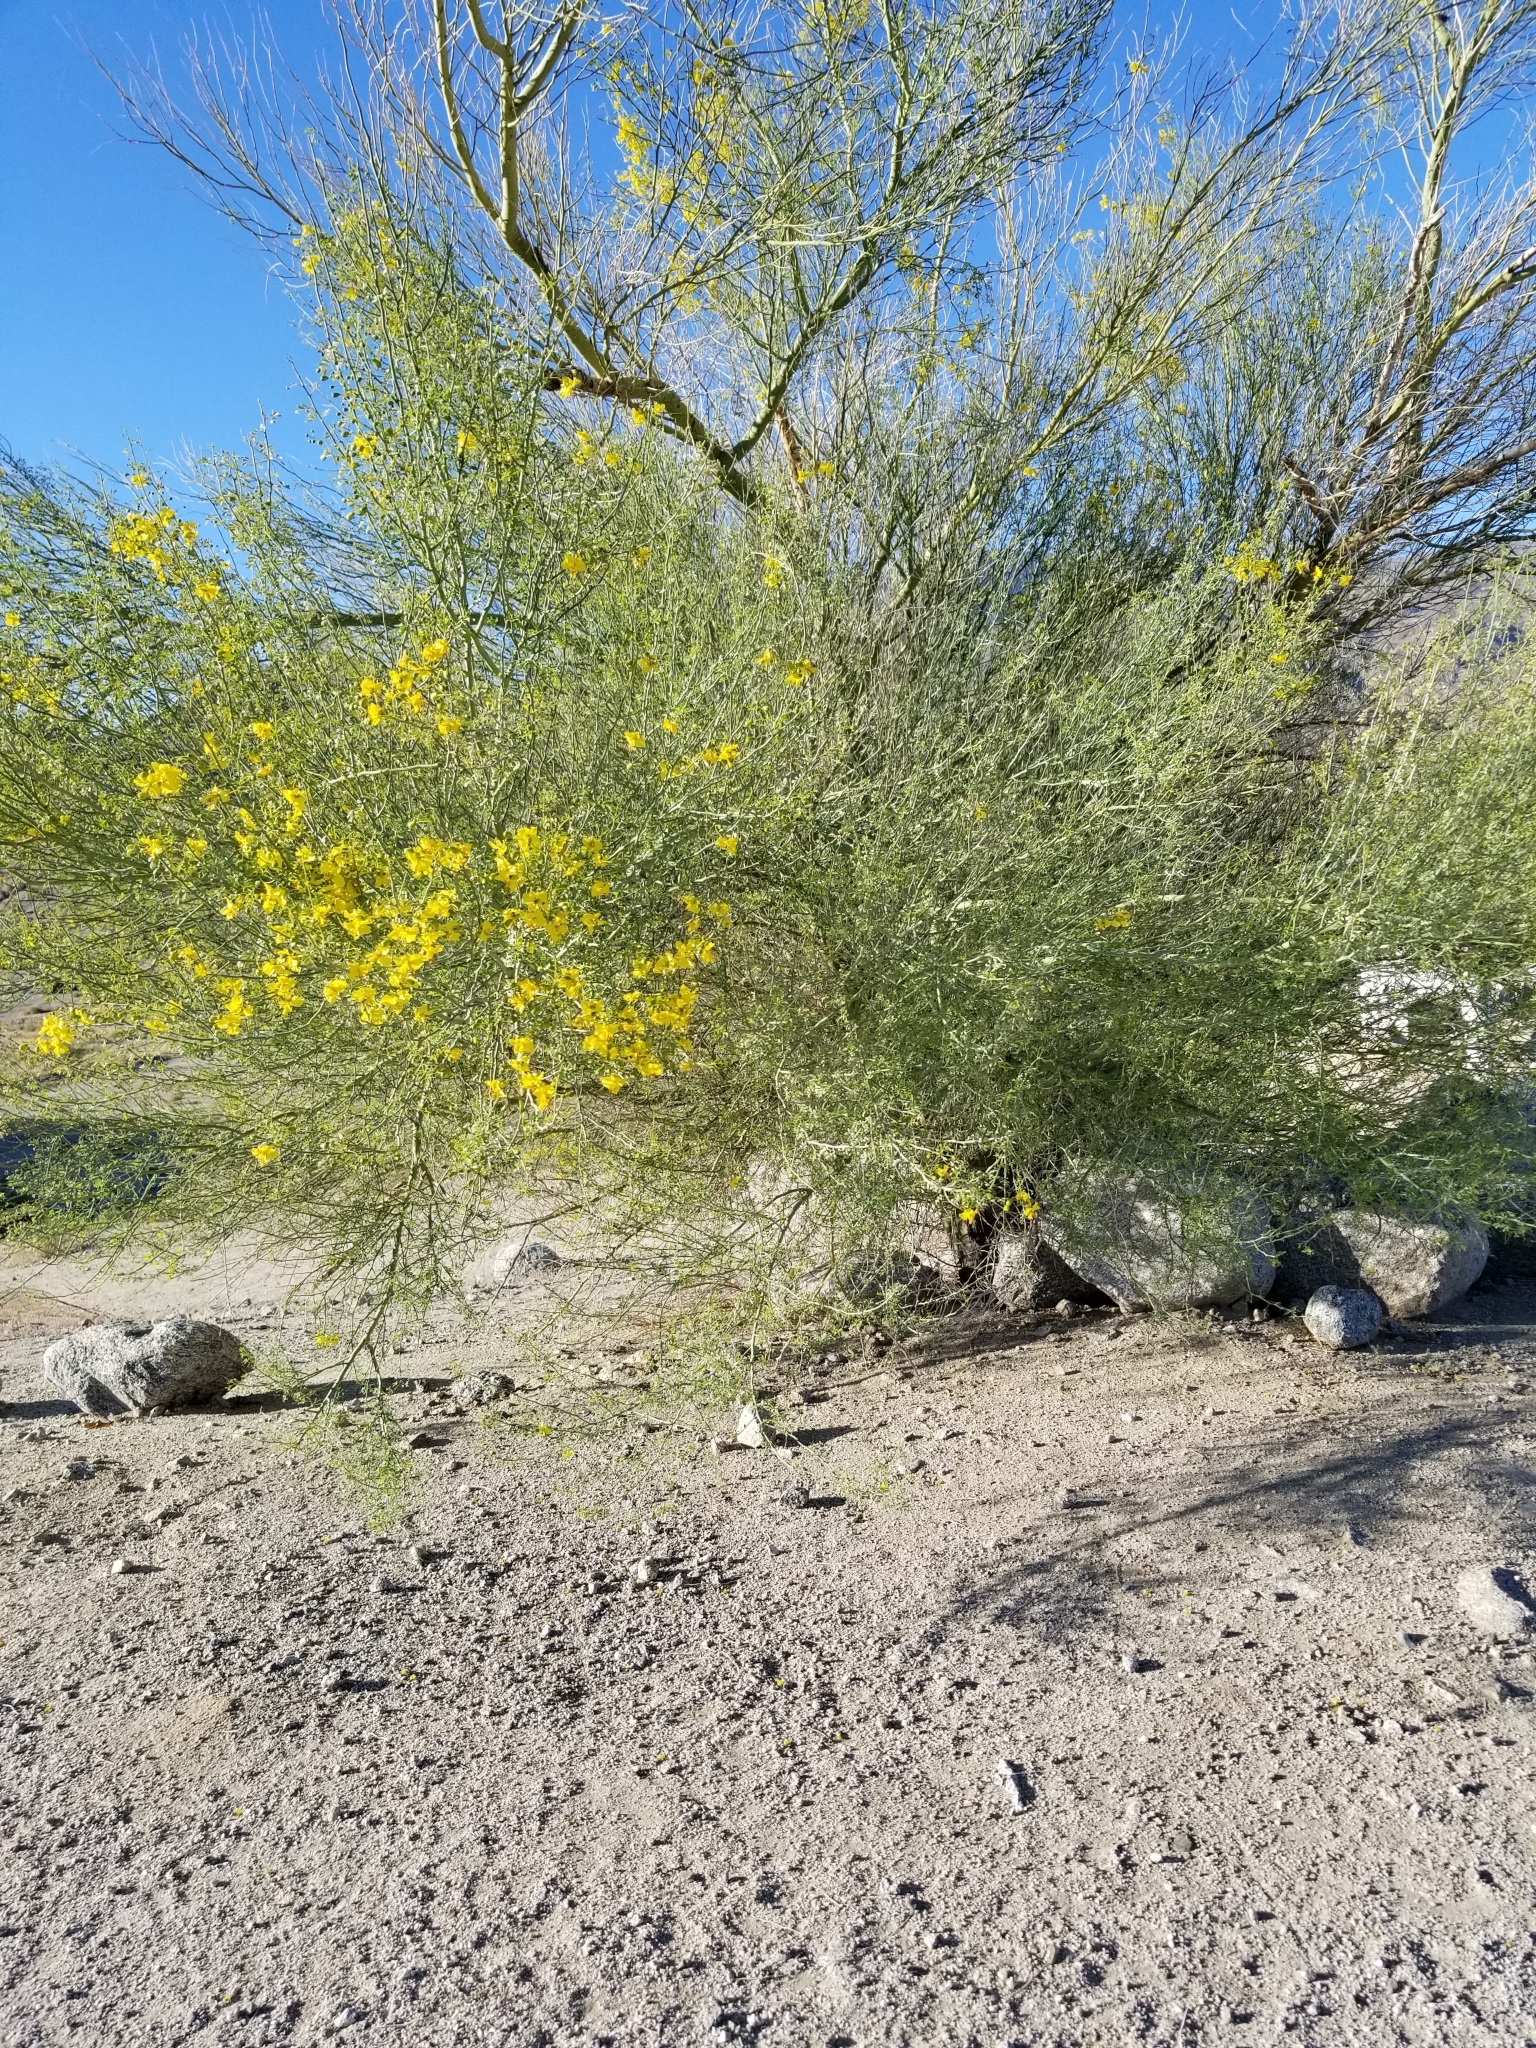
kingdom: Plantae
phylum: Tracheophyta
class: Magnoliopsida
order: Fabales
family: Fabaceae
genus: Parkinsonia
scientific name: Parkinsonia florida
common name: Blue paloverde
